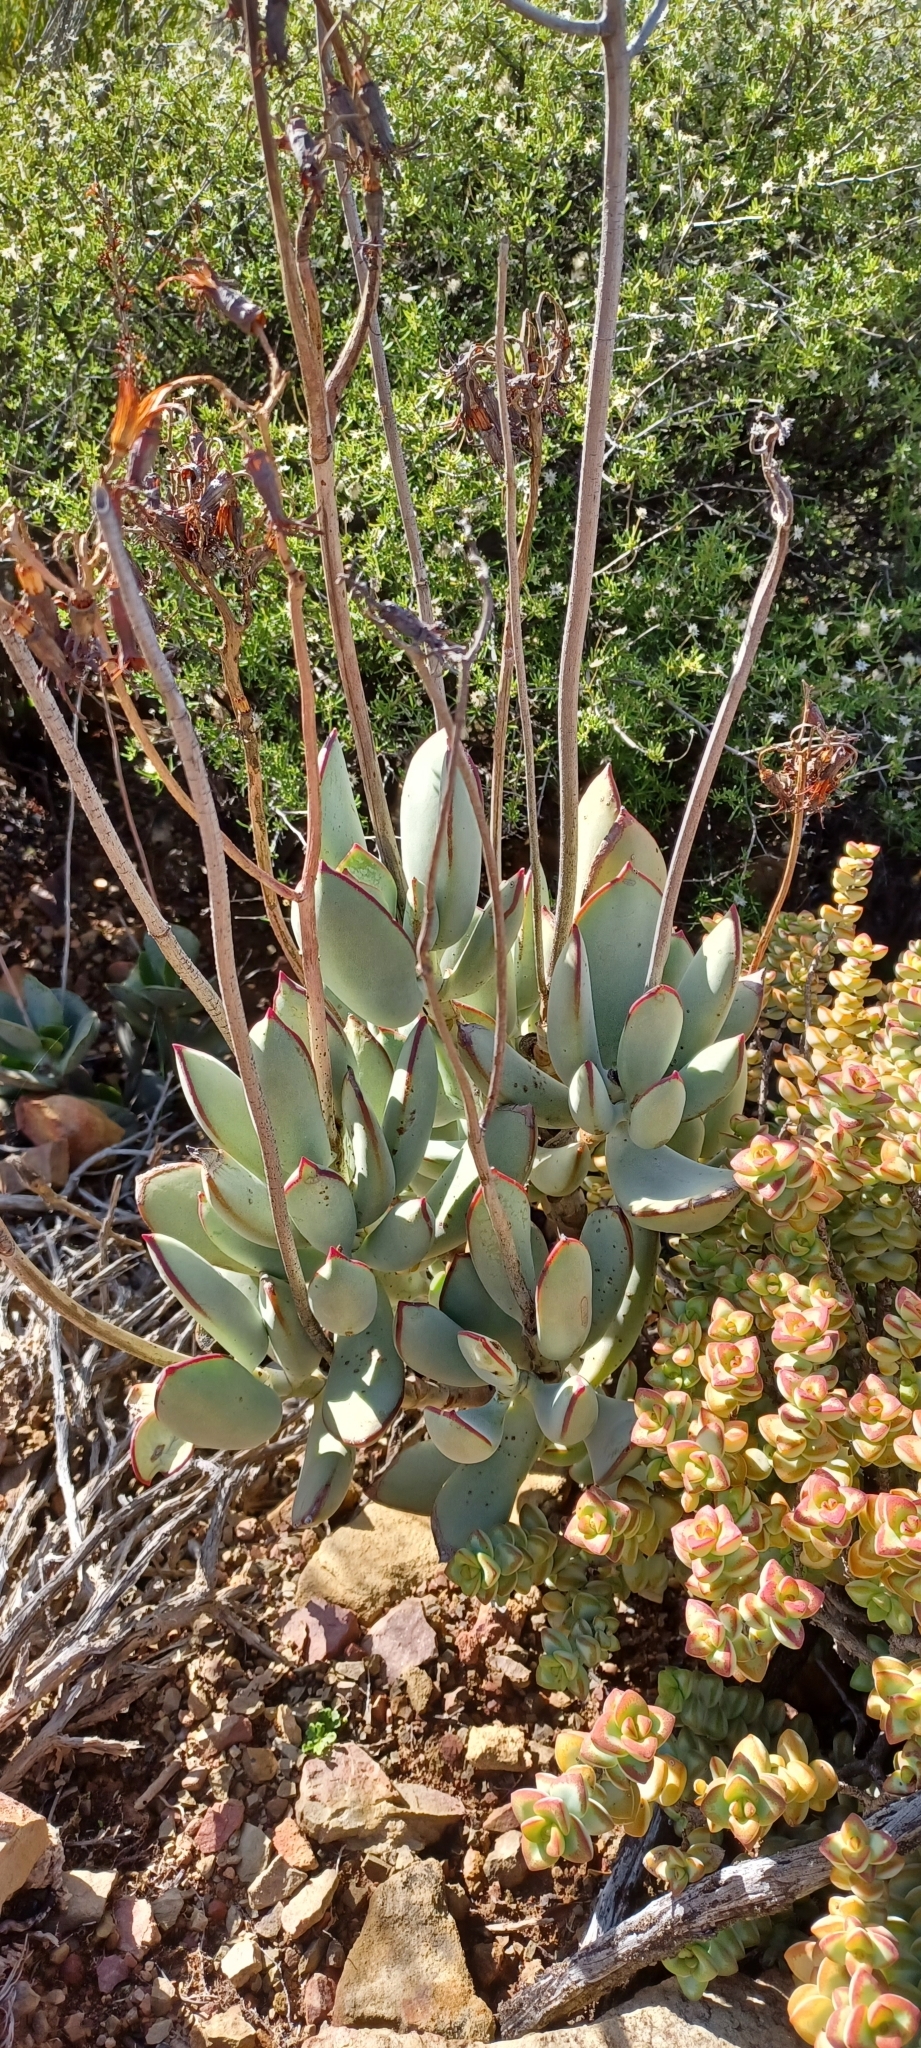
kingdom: Plantae
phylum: Tracheophyta
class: Magnoliopsida
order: Saxifragales
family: Crassulaceae
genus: Cotyledon
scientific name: Cotyledon orbiculata
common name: Pig's ear
